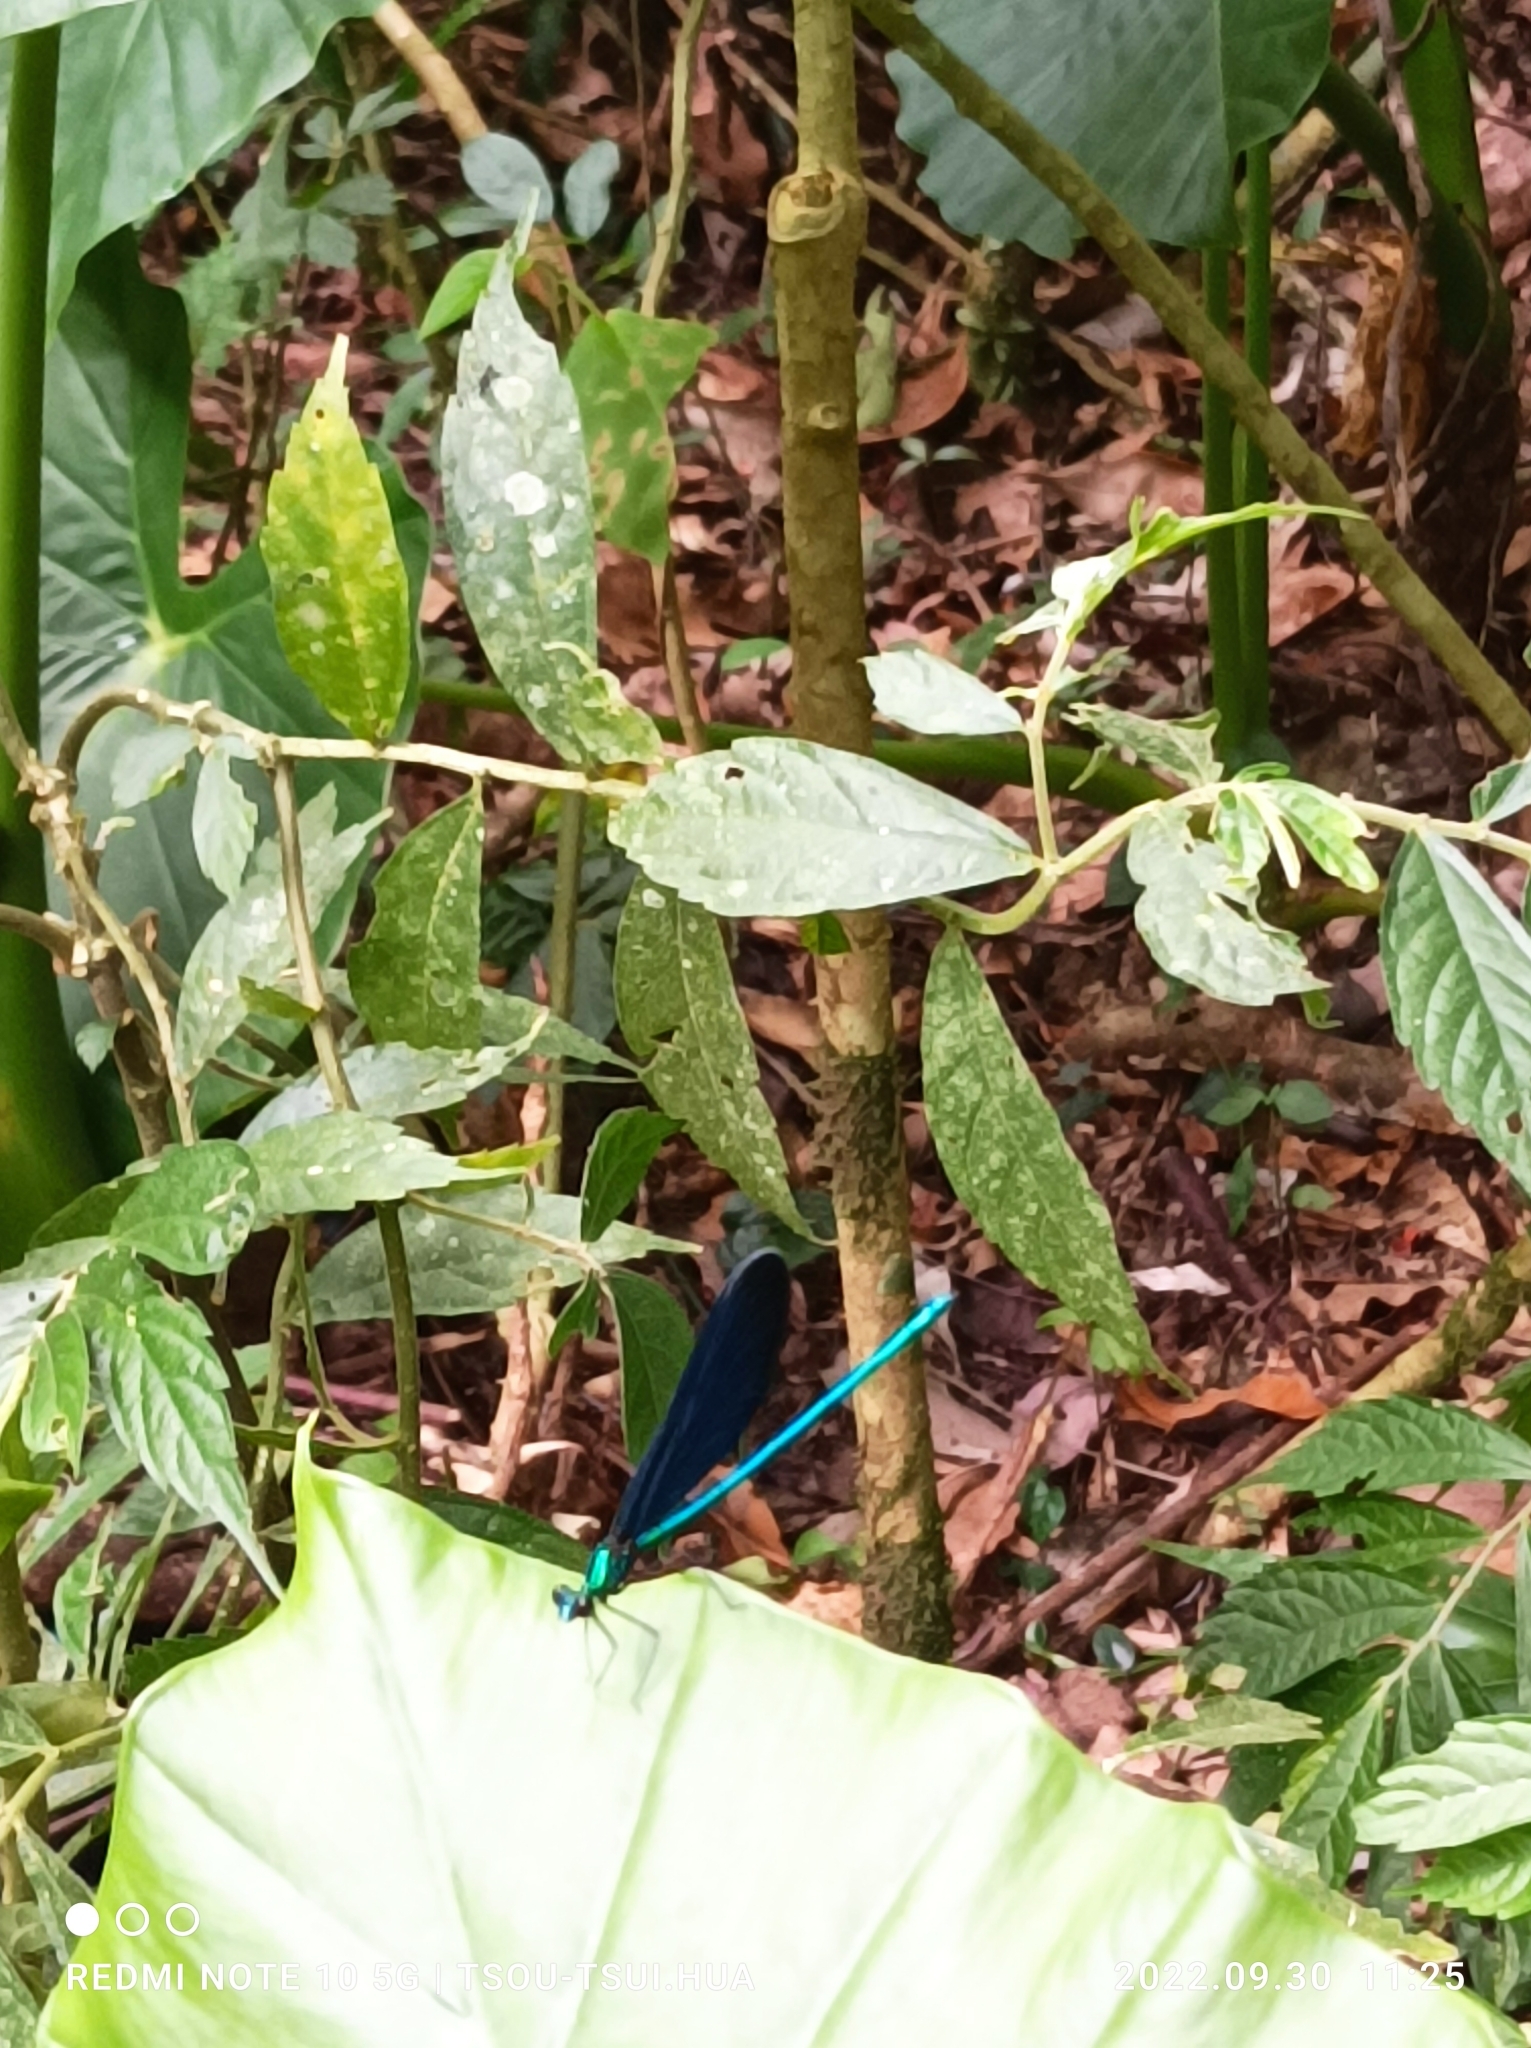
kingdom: Animalia
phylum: Arthropoda
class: Insecta
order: Odonata
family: Calopterygidae
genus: Matrona
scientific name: Matrona cyanoptera
